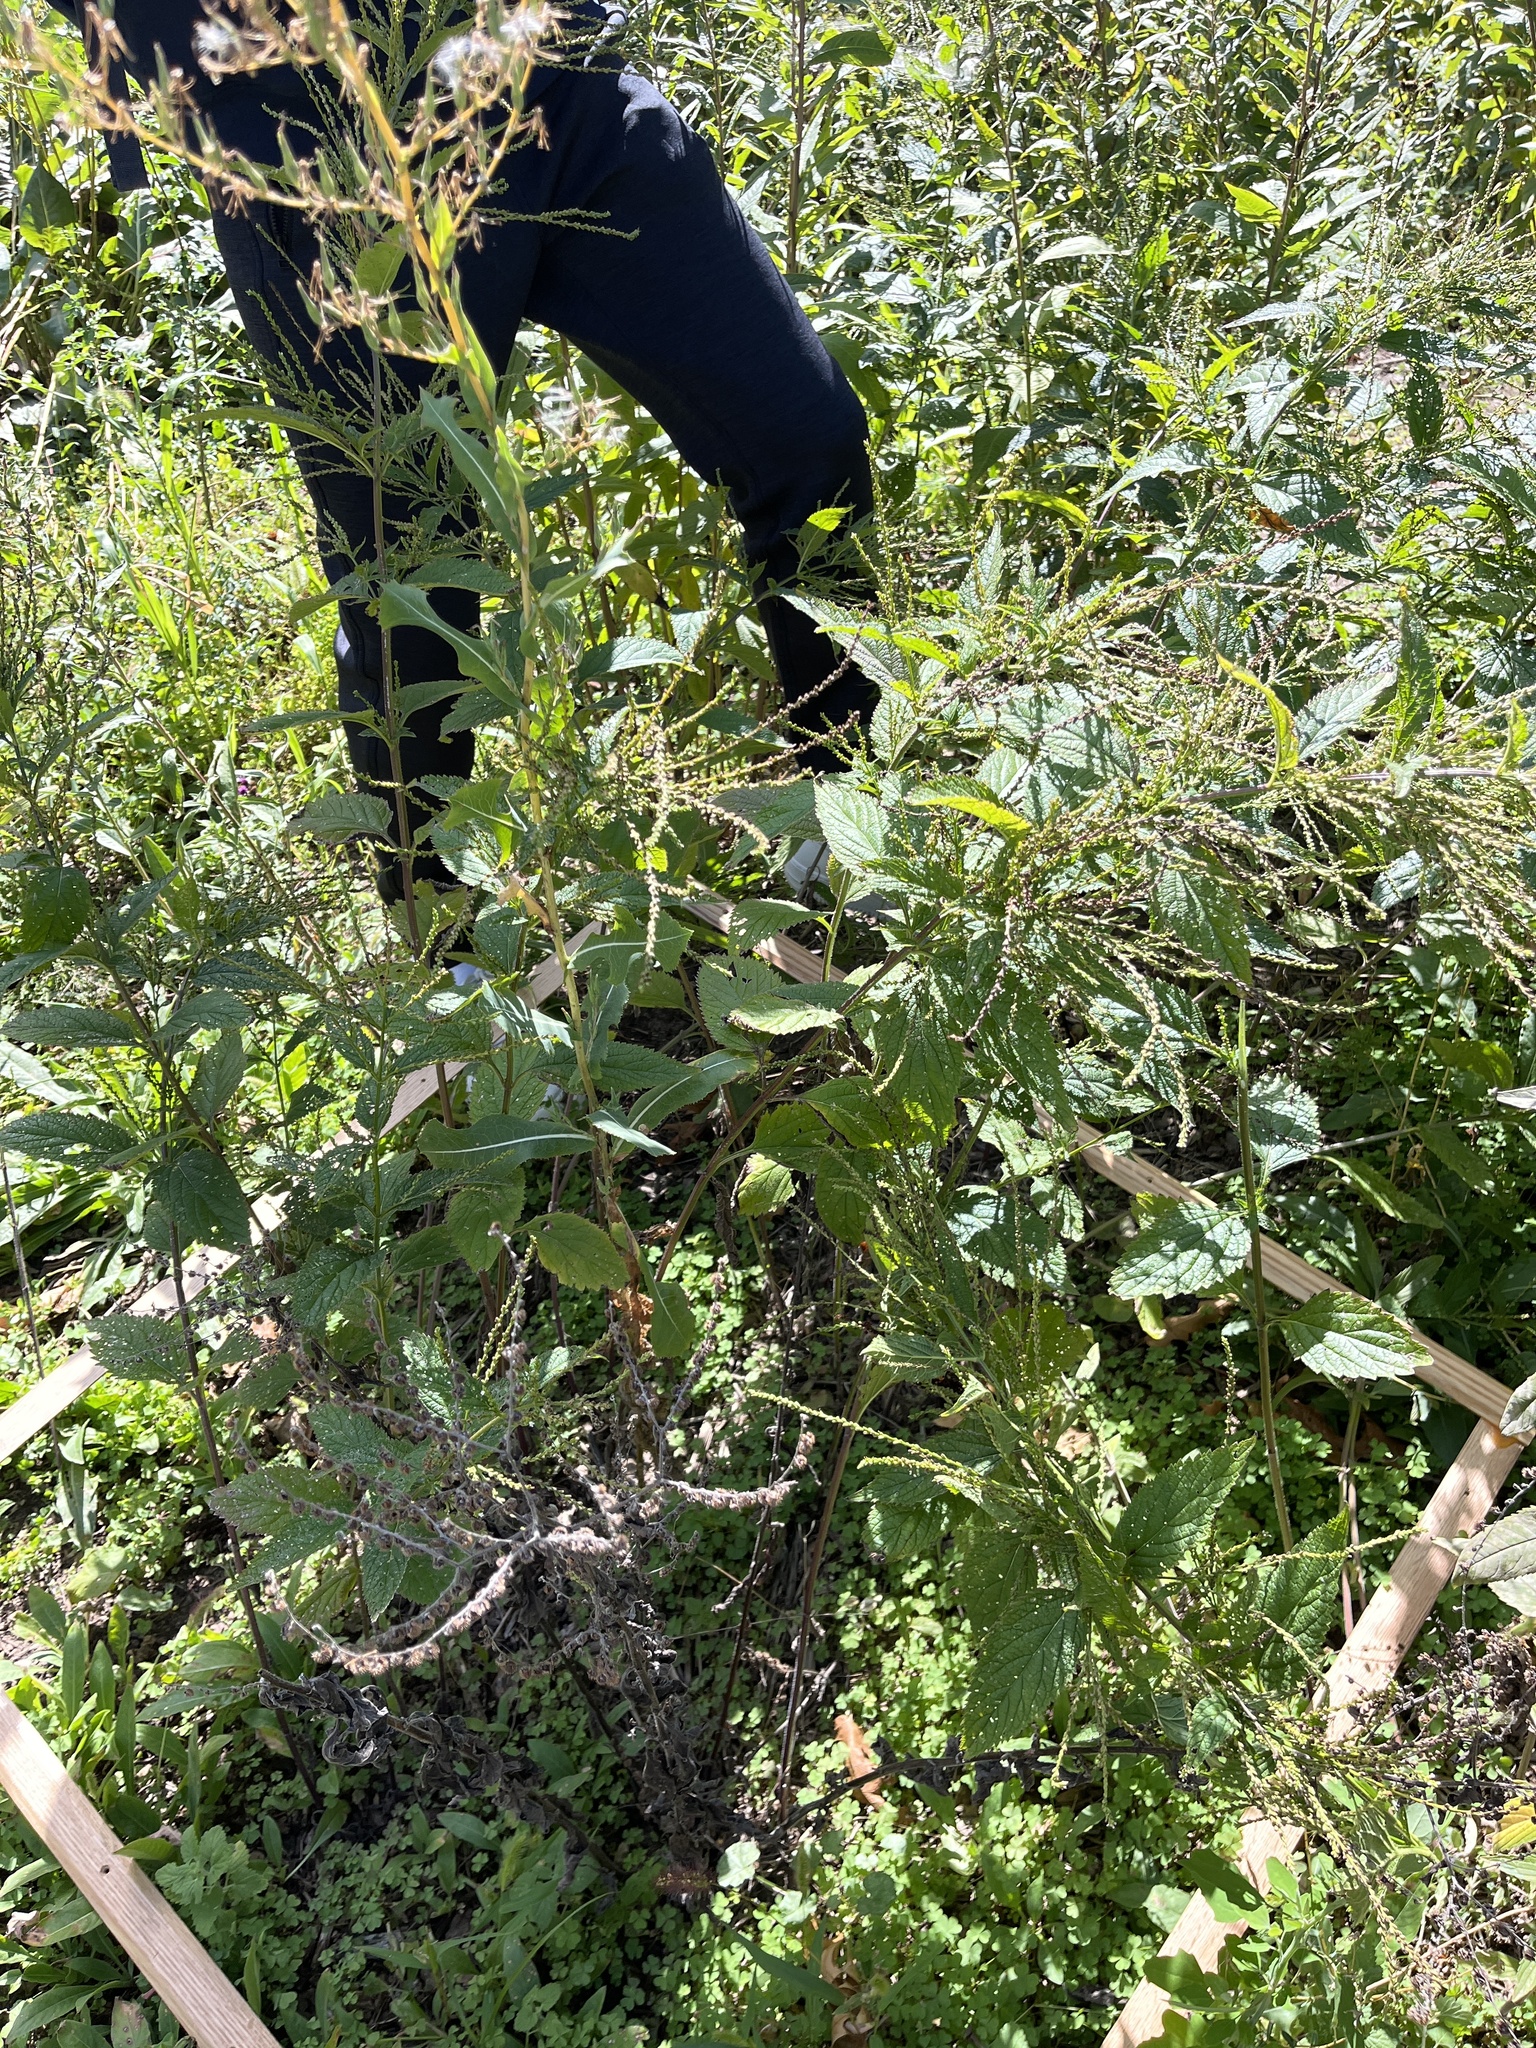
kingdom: Plantae
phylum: Tracheophyta
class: Magnoliopsida
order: Lamiales
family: Verbenaceae
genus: Verbena
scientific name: Verbena urticifolia
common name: Nettle-leaved vervain
